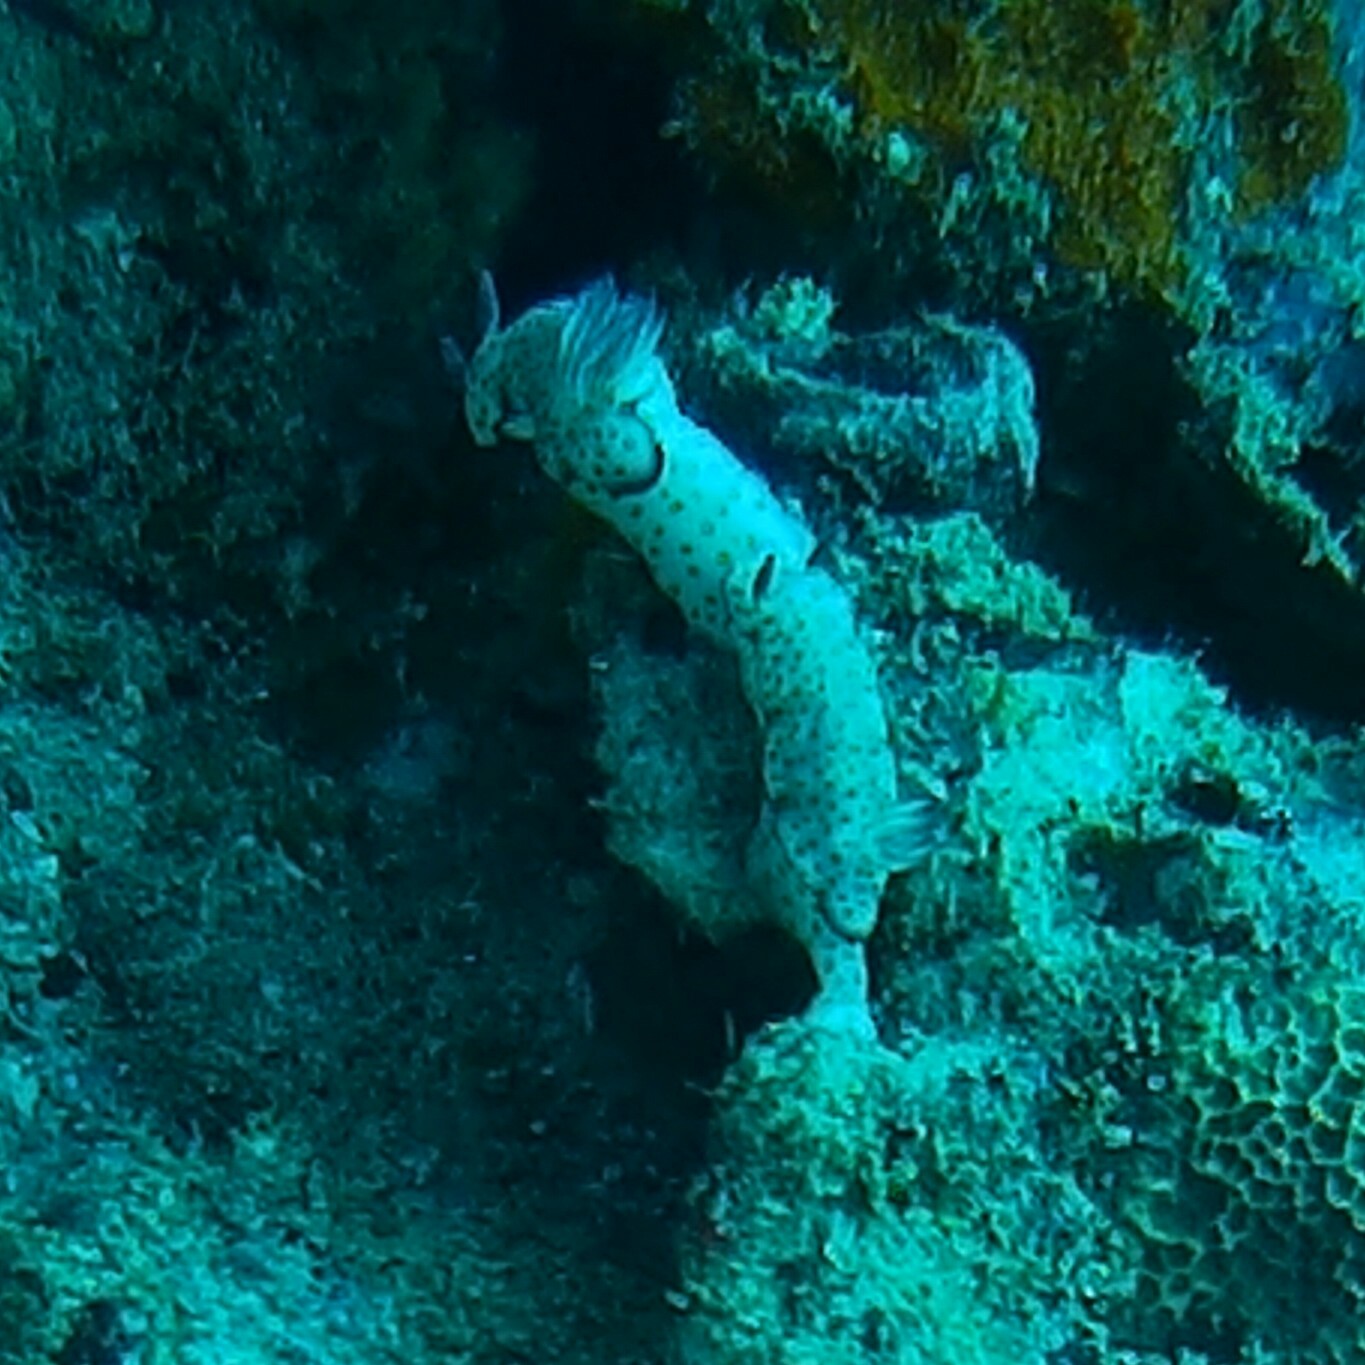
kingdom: Animalia
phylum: Mollusca
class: Gastropoda
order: Nudibranchia
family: Chromodorididae
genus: Hypselodoris
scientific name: Hypselodoris pulchella
